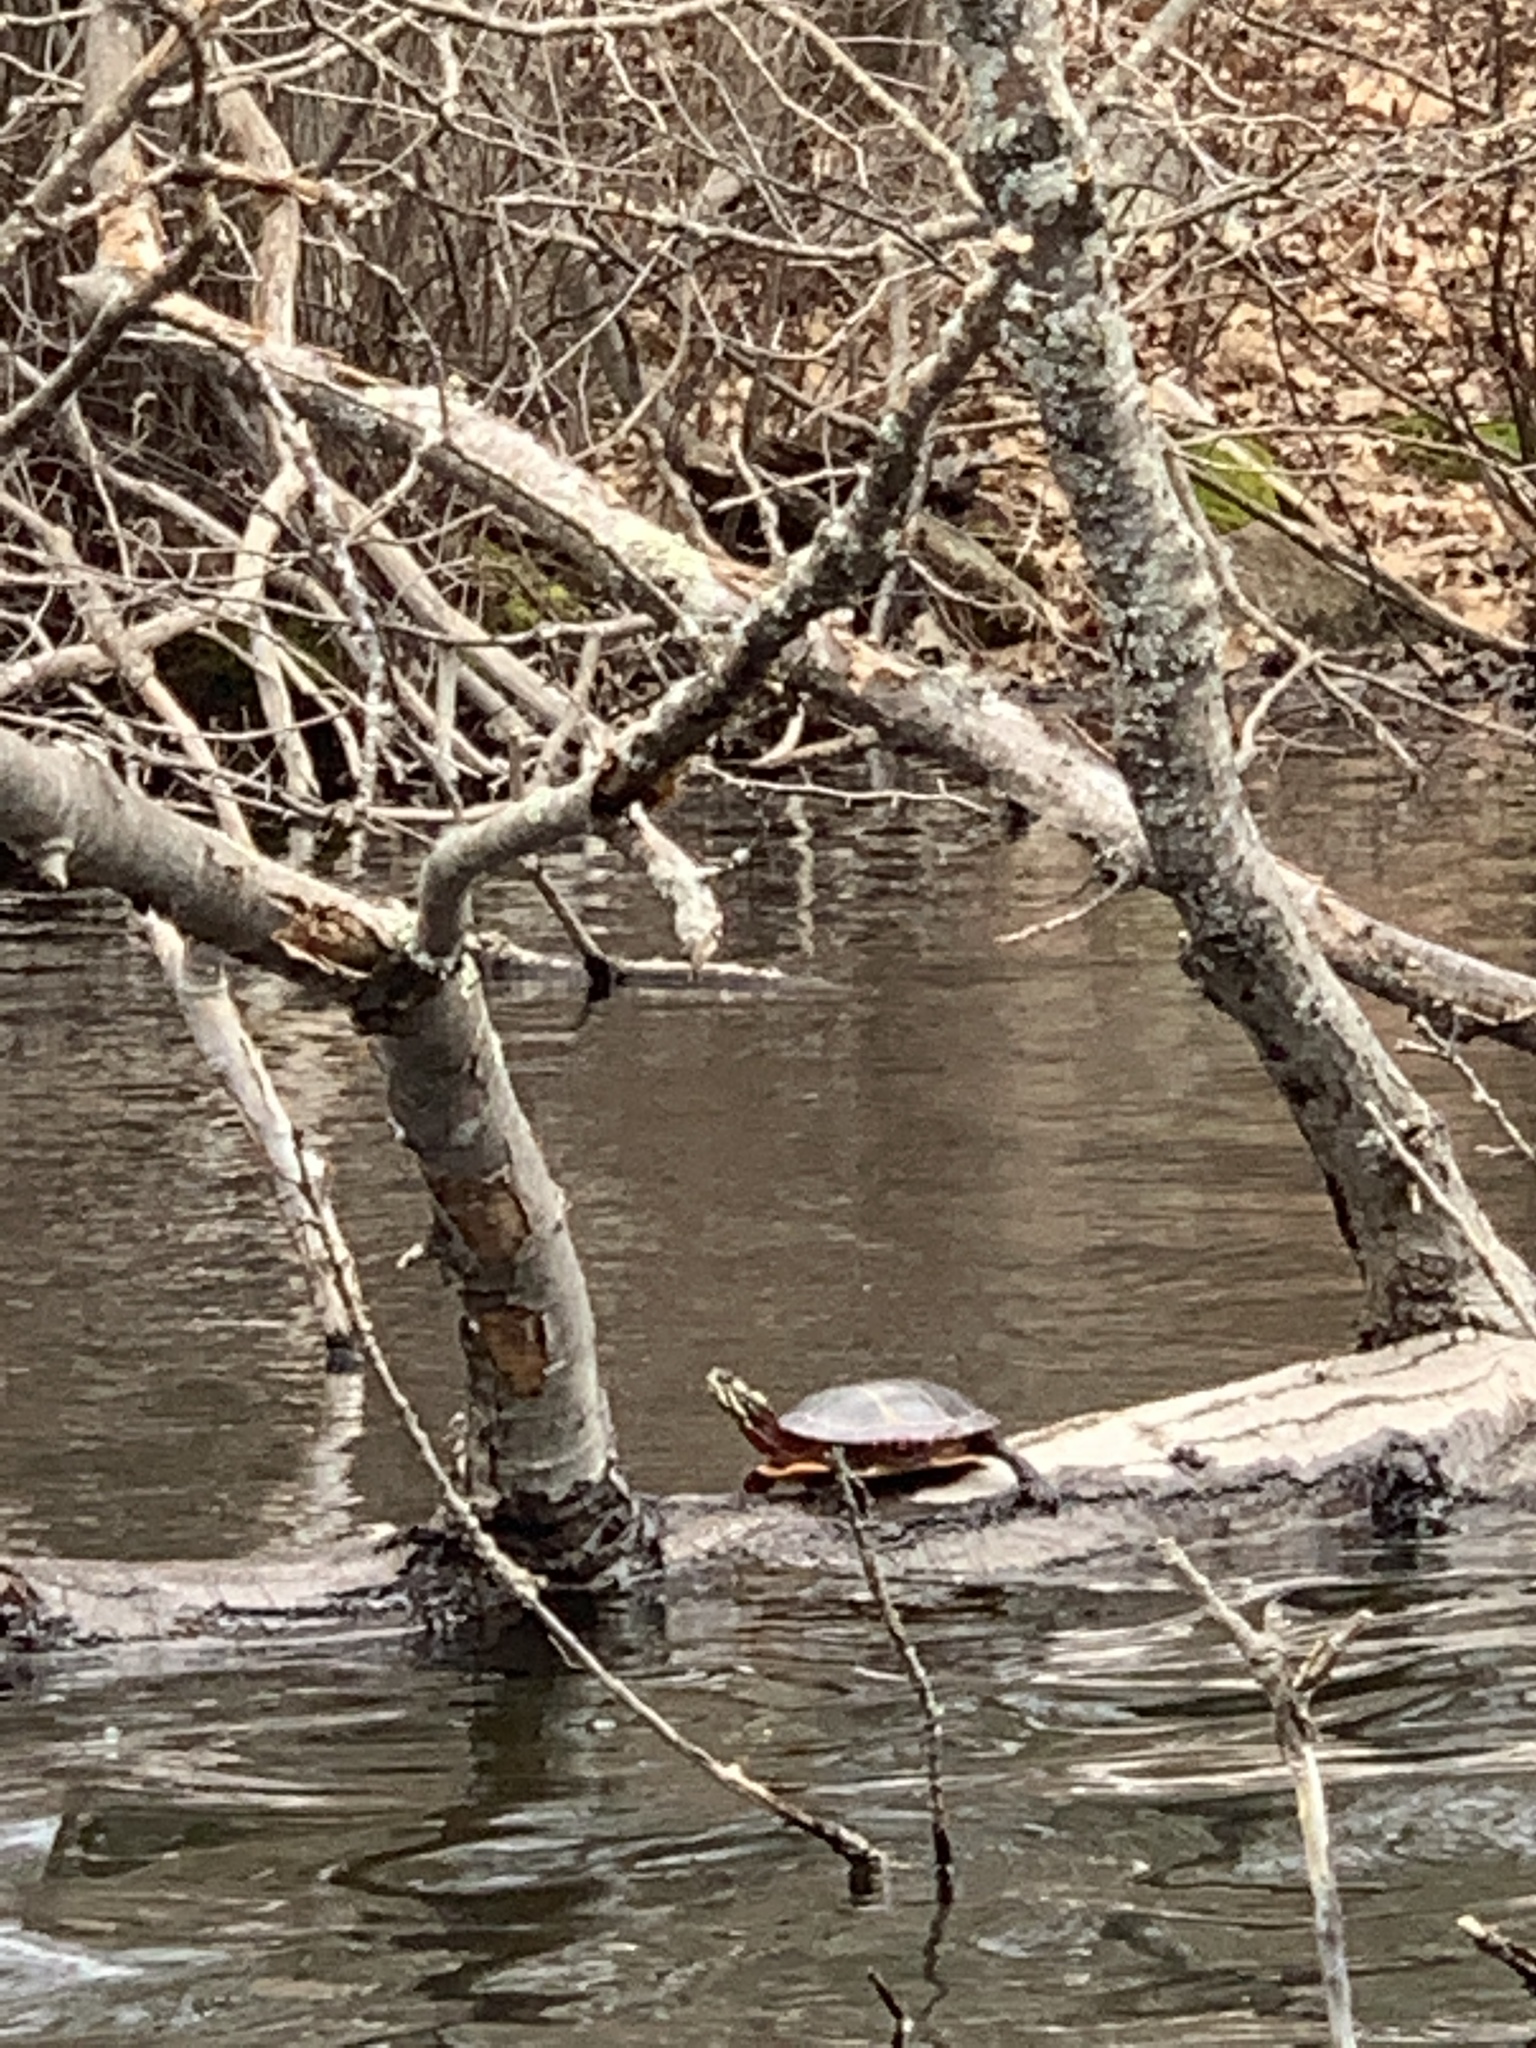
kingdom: Animalia
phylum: Chordata
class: Testudines
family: Emydidae
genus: Chrysemys
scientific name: Chrysemys picta
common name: Painted turtle
